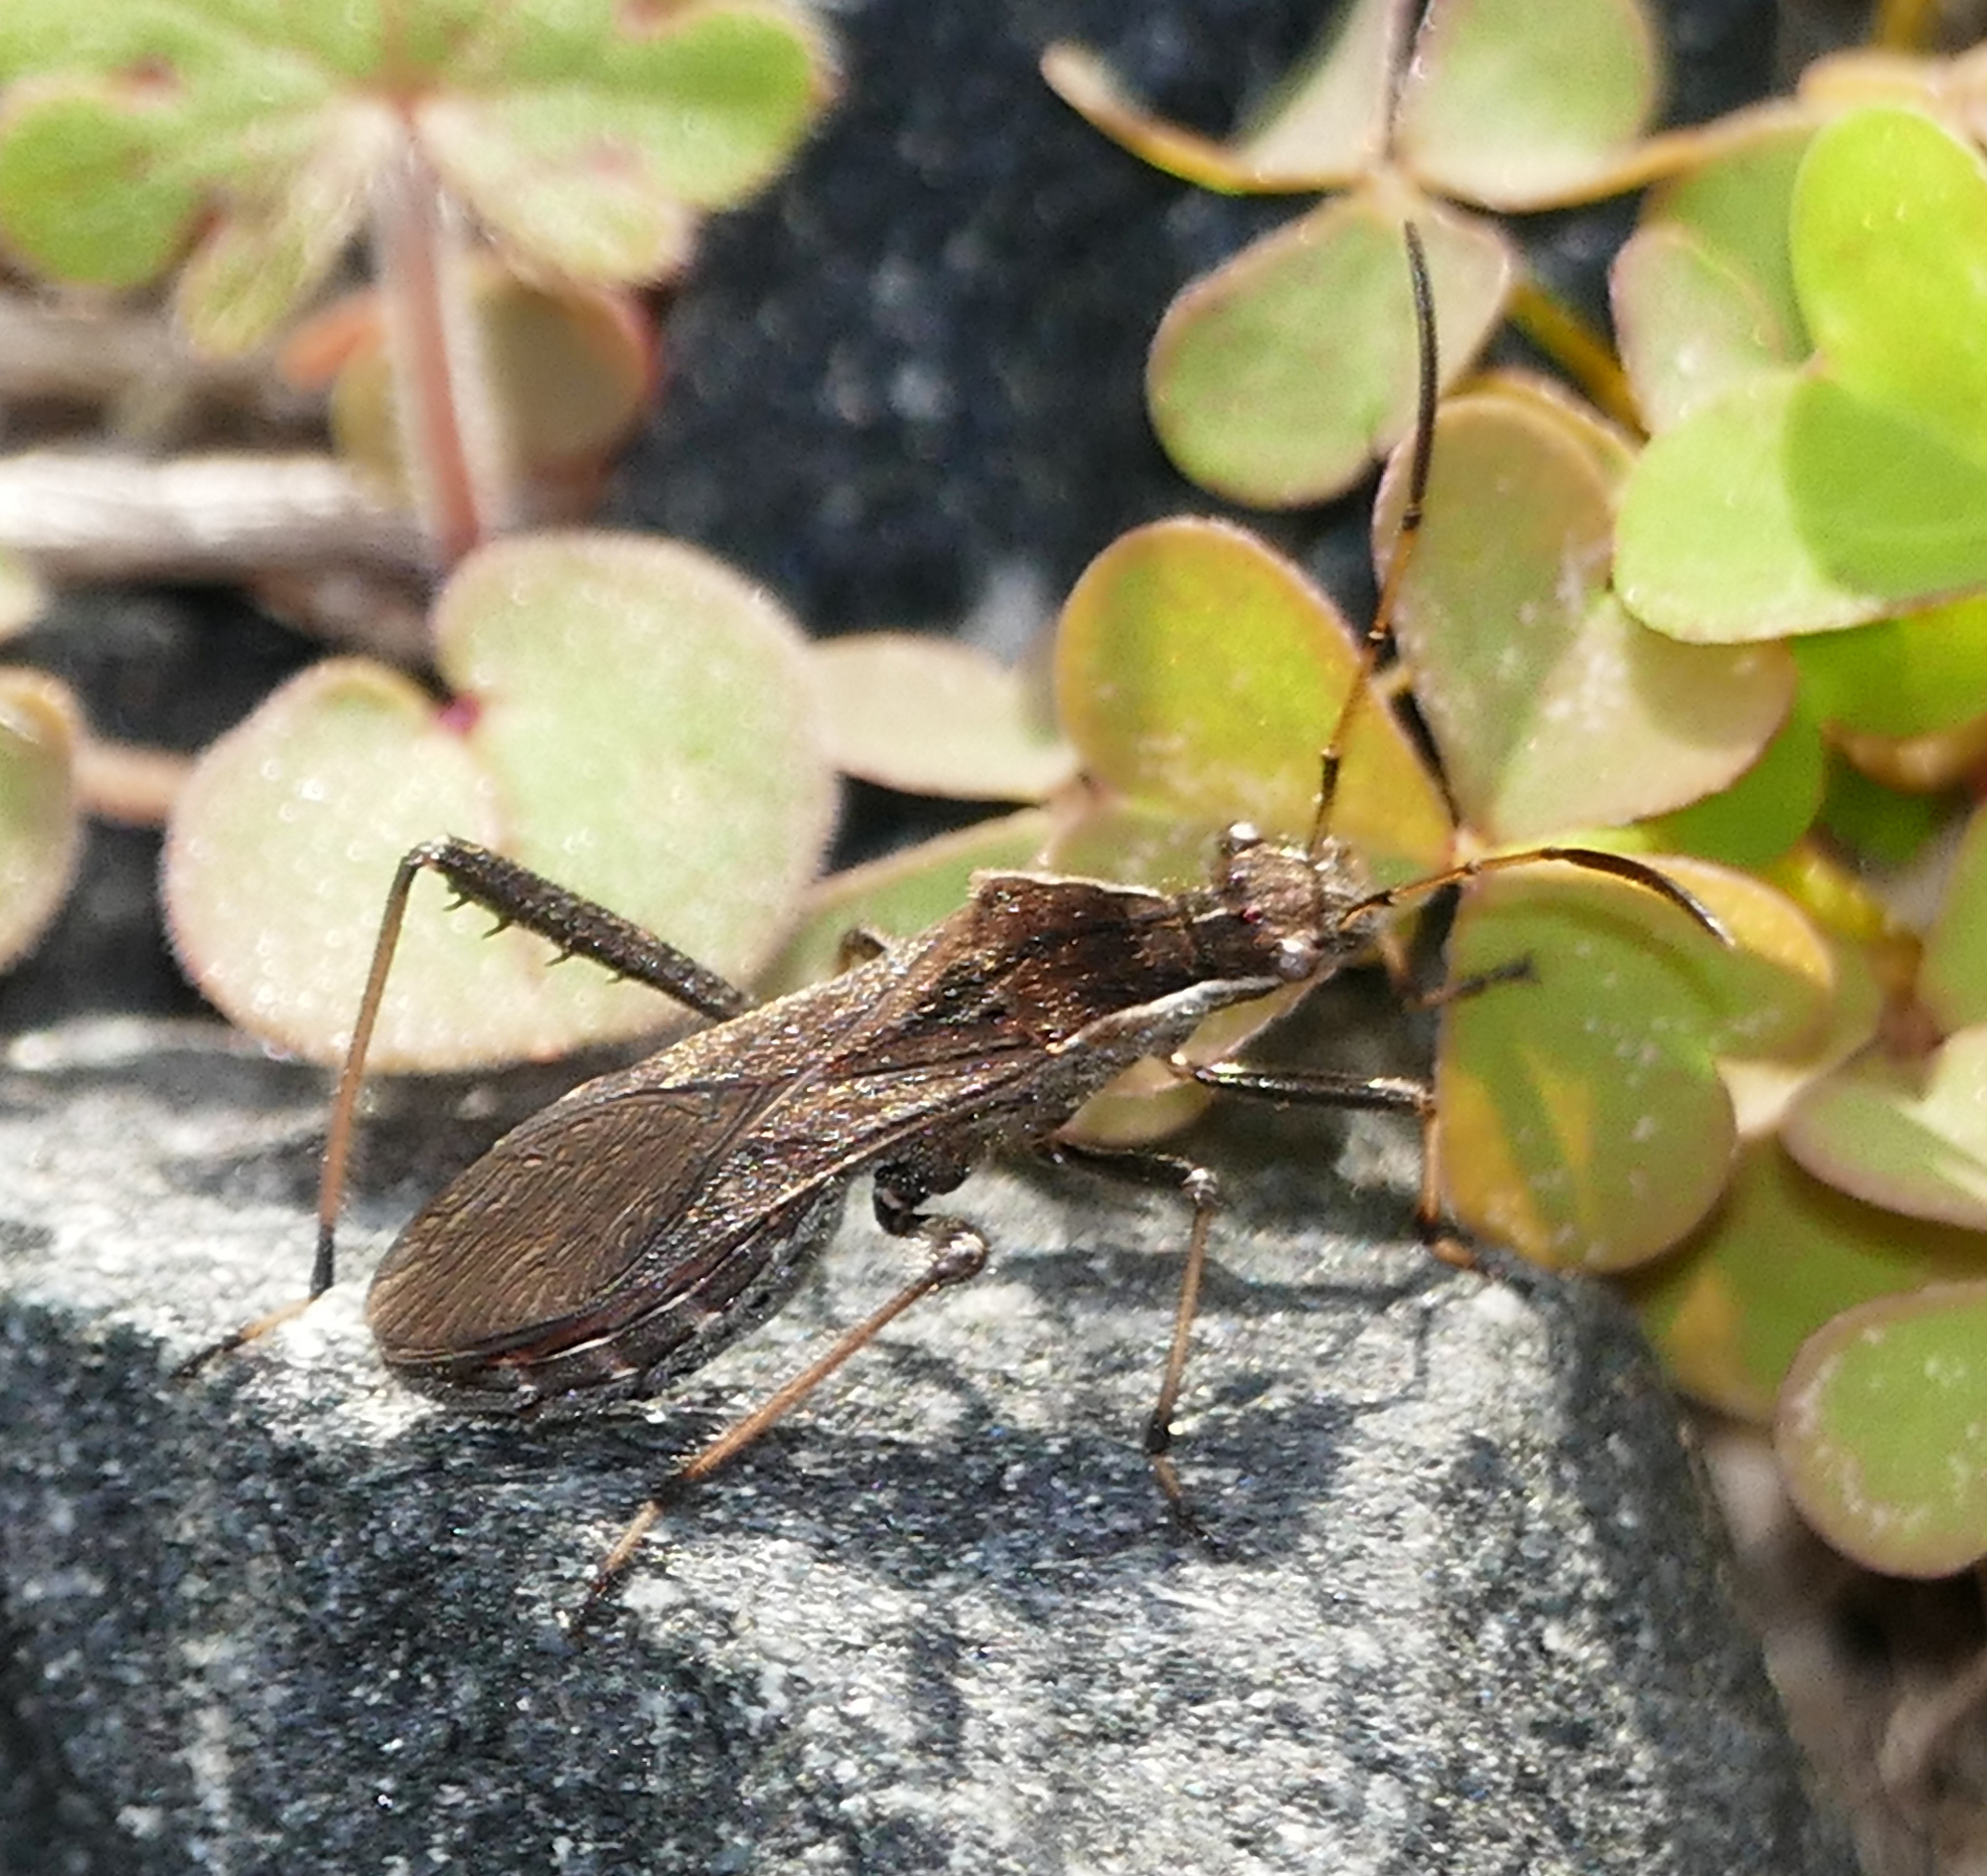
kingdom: Animalia
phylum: Arthropoda
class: Insecta
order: Hemiptera
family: Alydidae
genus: Alydus
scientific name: Alydus pilosulus
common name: Broad-headed bug
